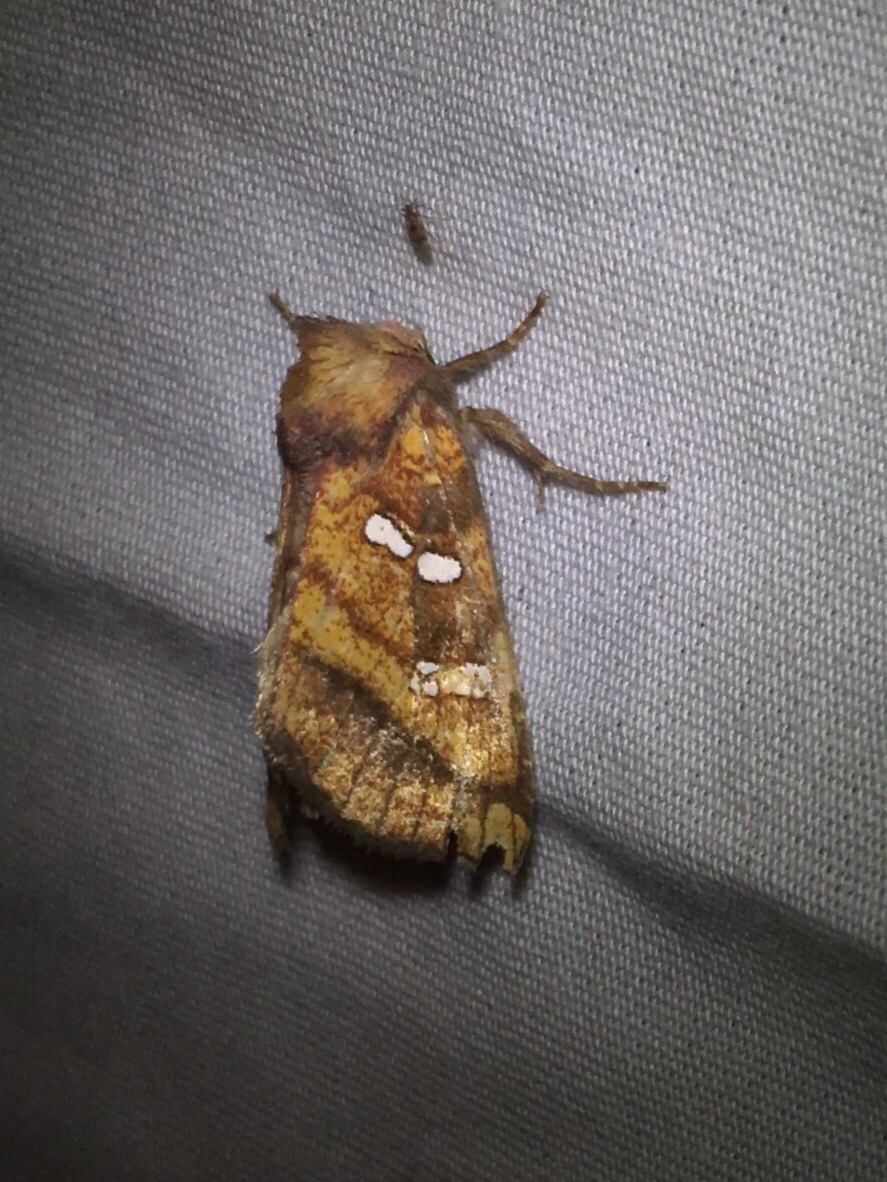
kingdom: Animalia
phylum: Arthropoda
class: Insecta
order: Lepidoptera
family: Noctuidae
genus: Papaipema
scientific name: Papaipema pterisii
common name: Bracken borer moth
